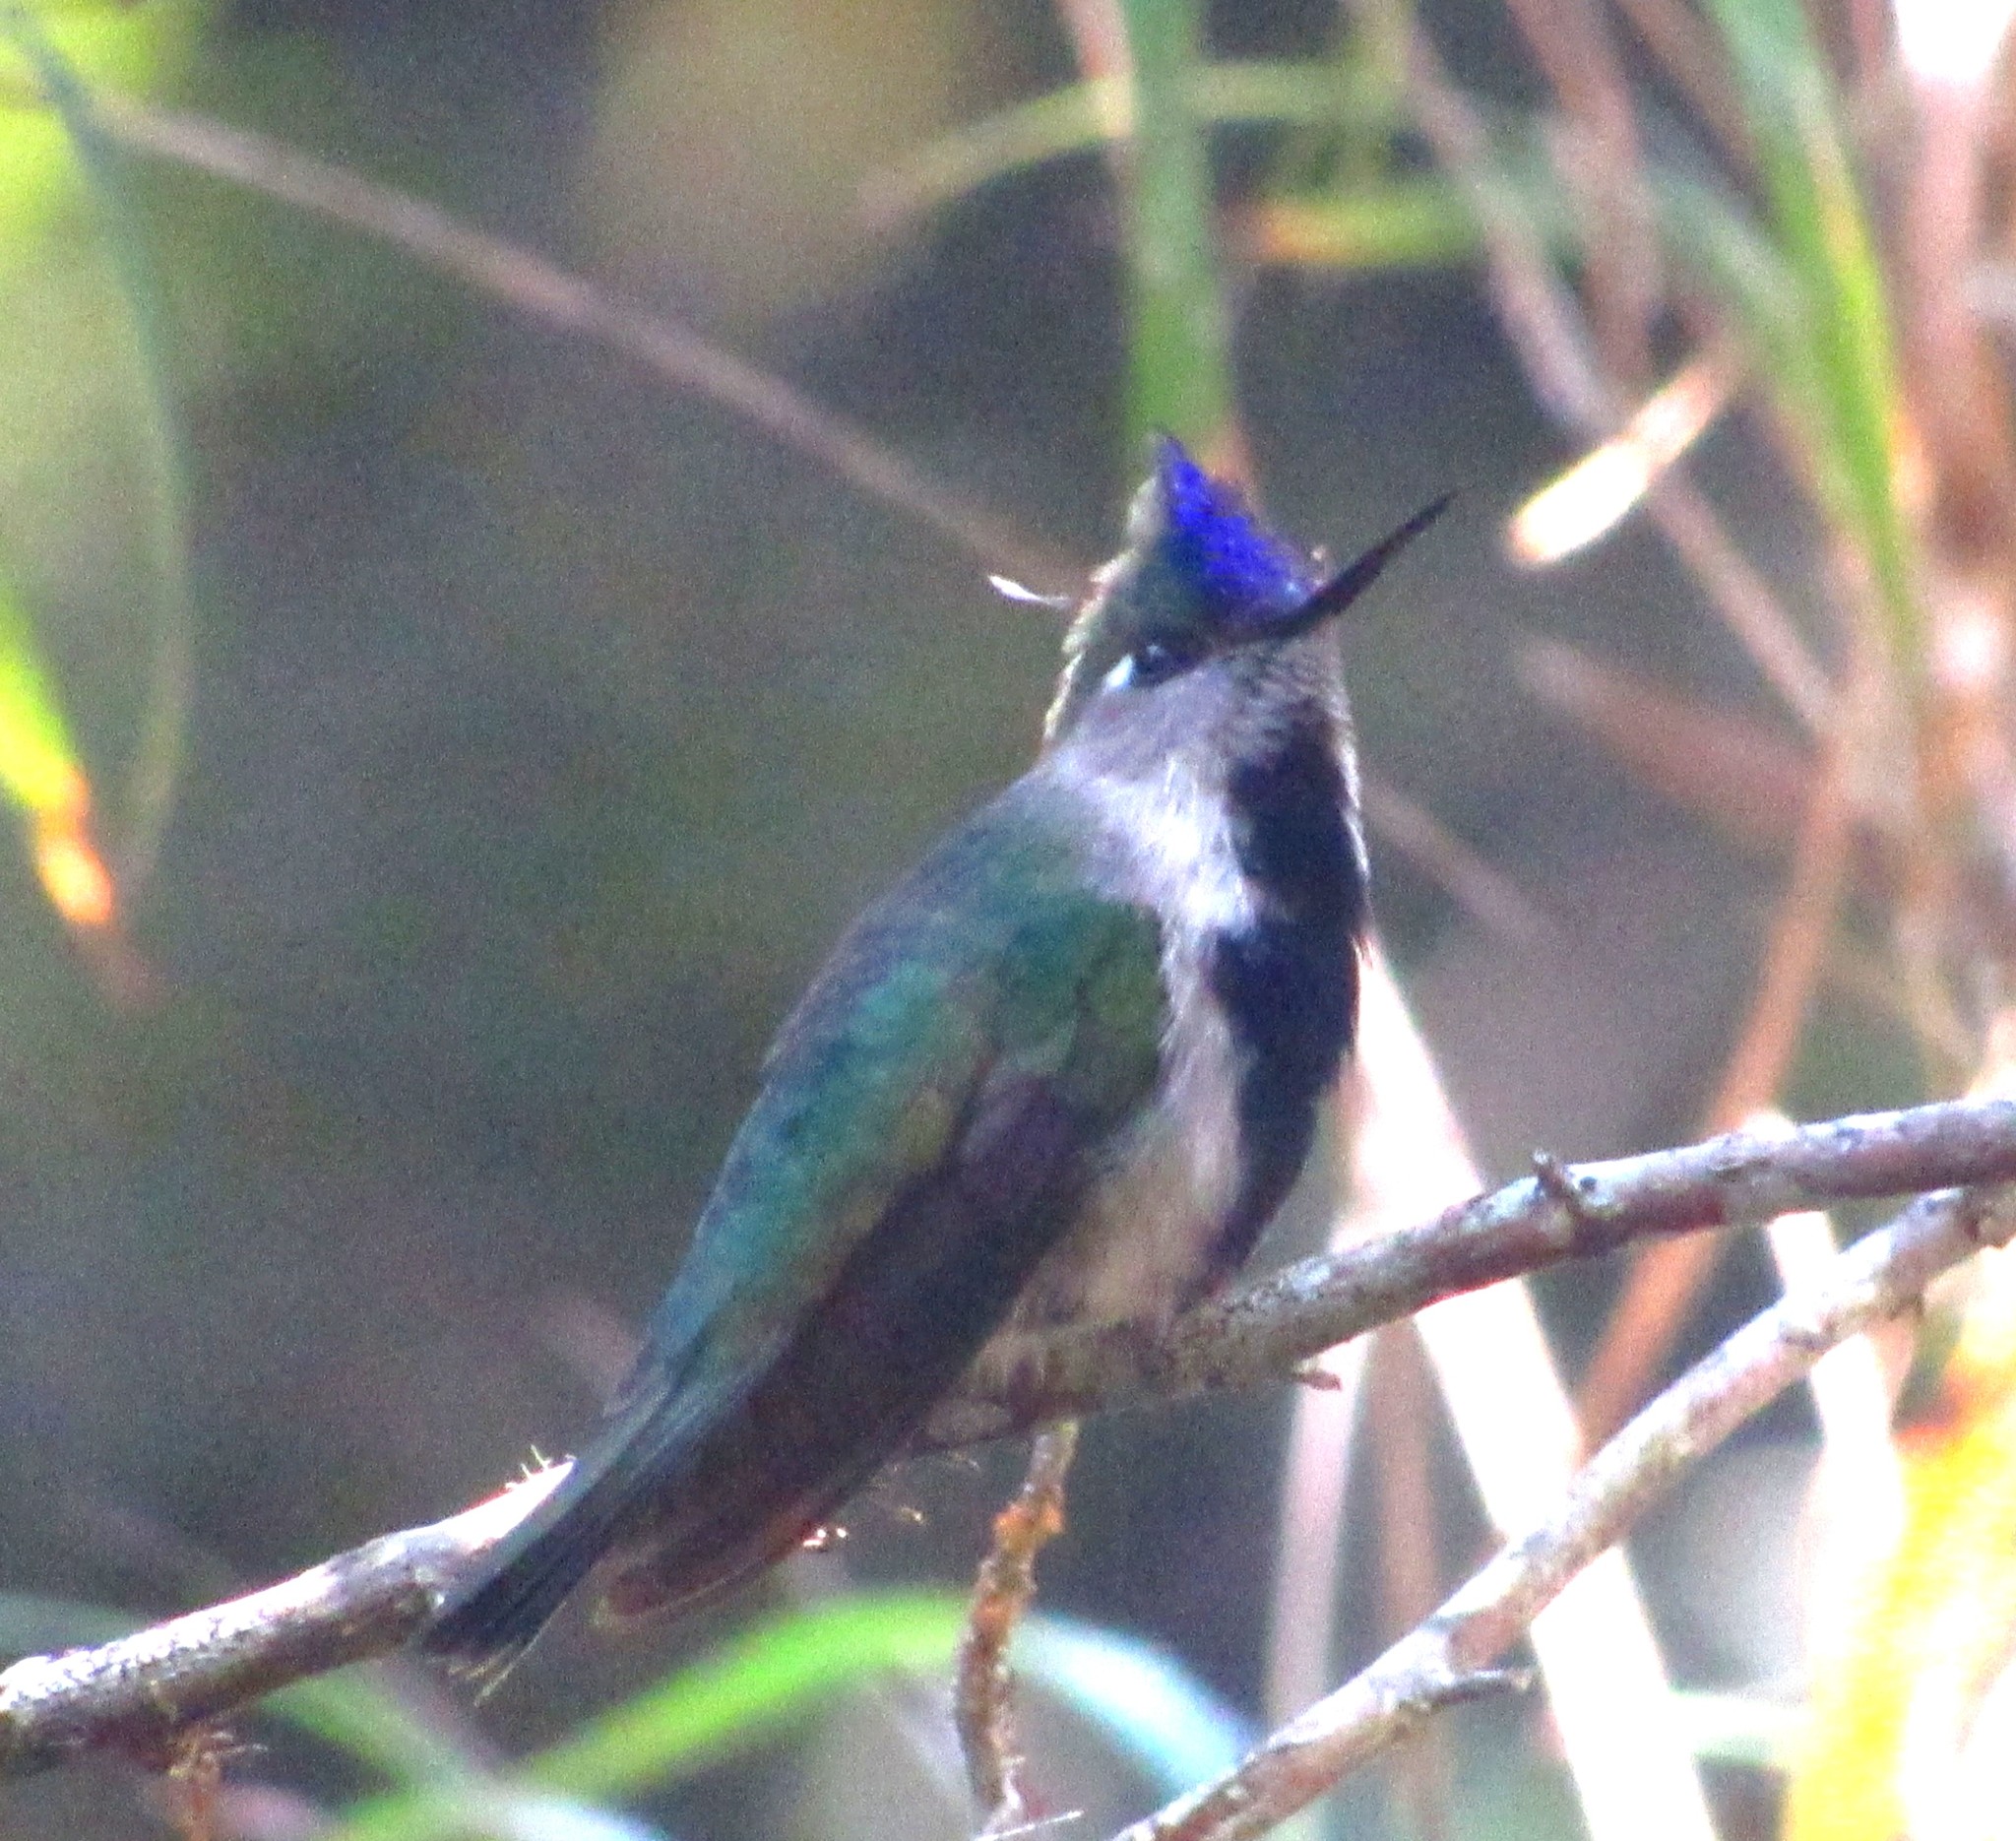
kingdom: Animalia
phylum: Chordata
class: Aves
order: Apodiformes
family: Trochilidae
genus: Stephanoxis
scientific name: Stephanoxis loddigesii
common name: Purple-crowned plovercrest
